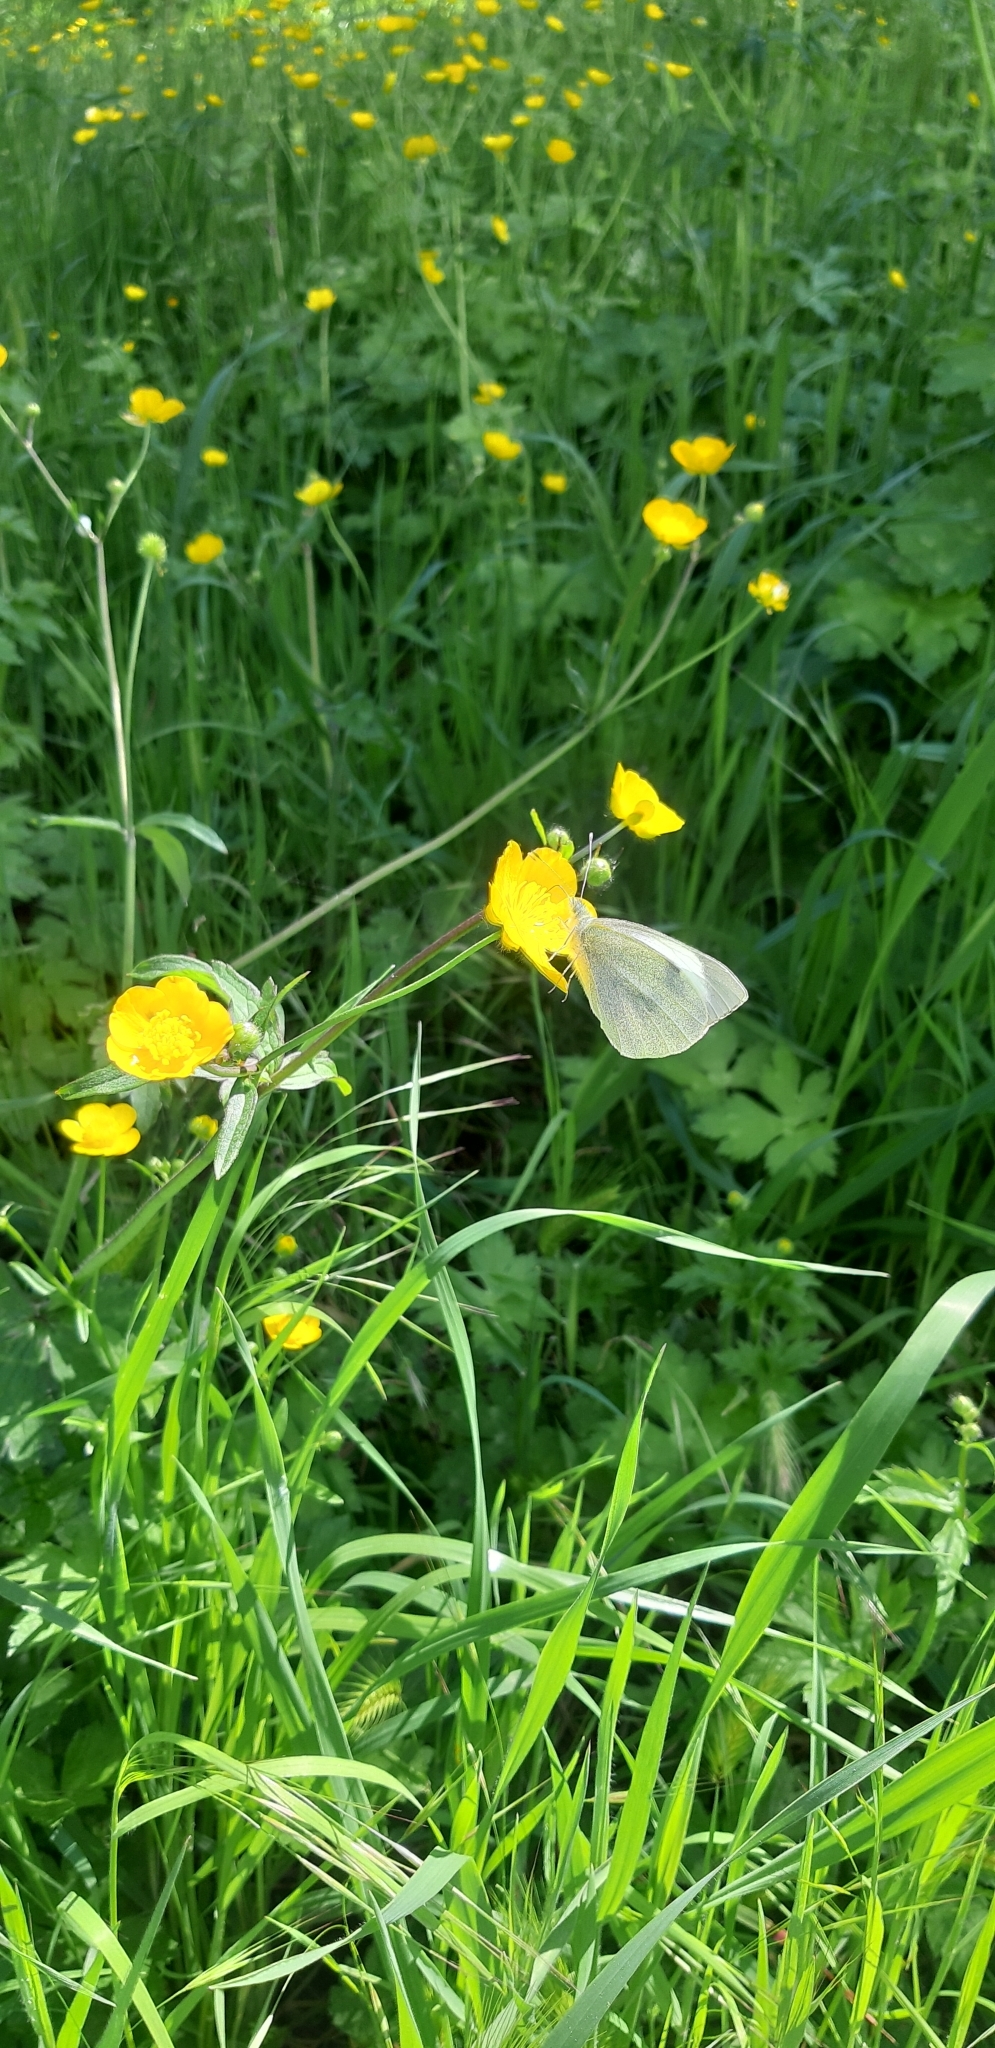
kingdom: Animalia
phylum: Arthropoda
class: Insecta
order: Lepidoptera
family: Pieridae
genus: Pieris
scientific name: Pieris brassicae
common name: Large white
